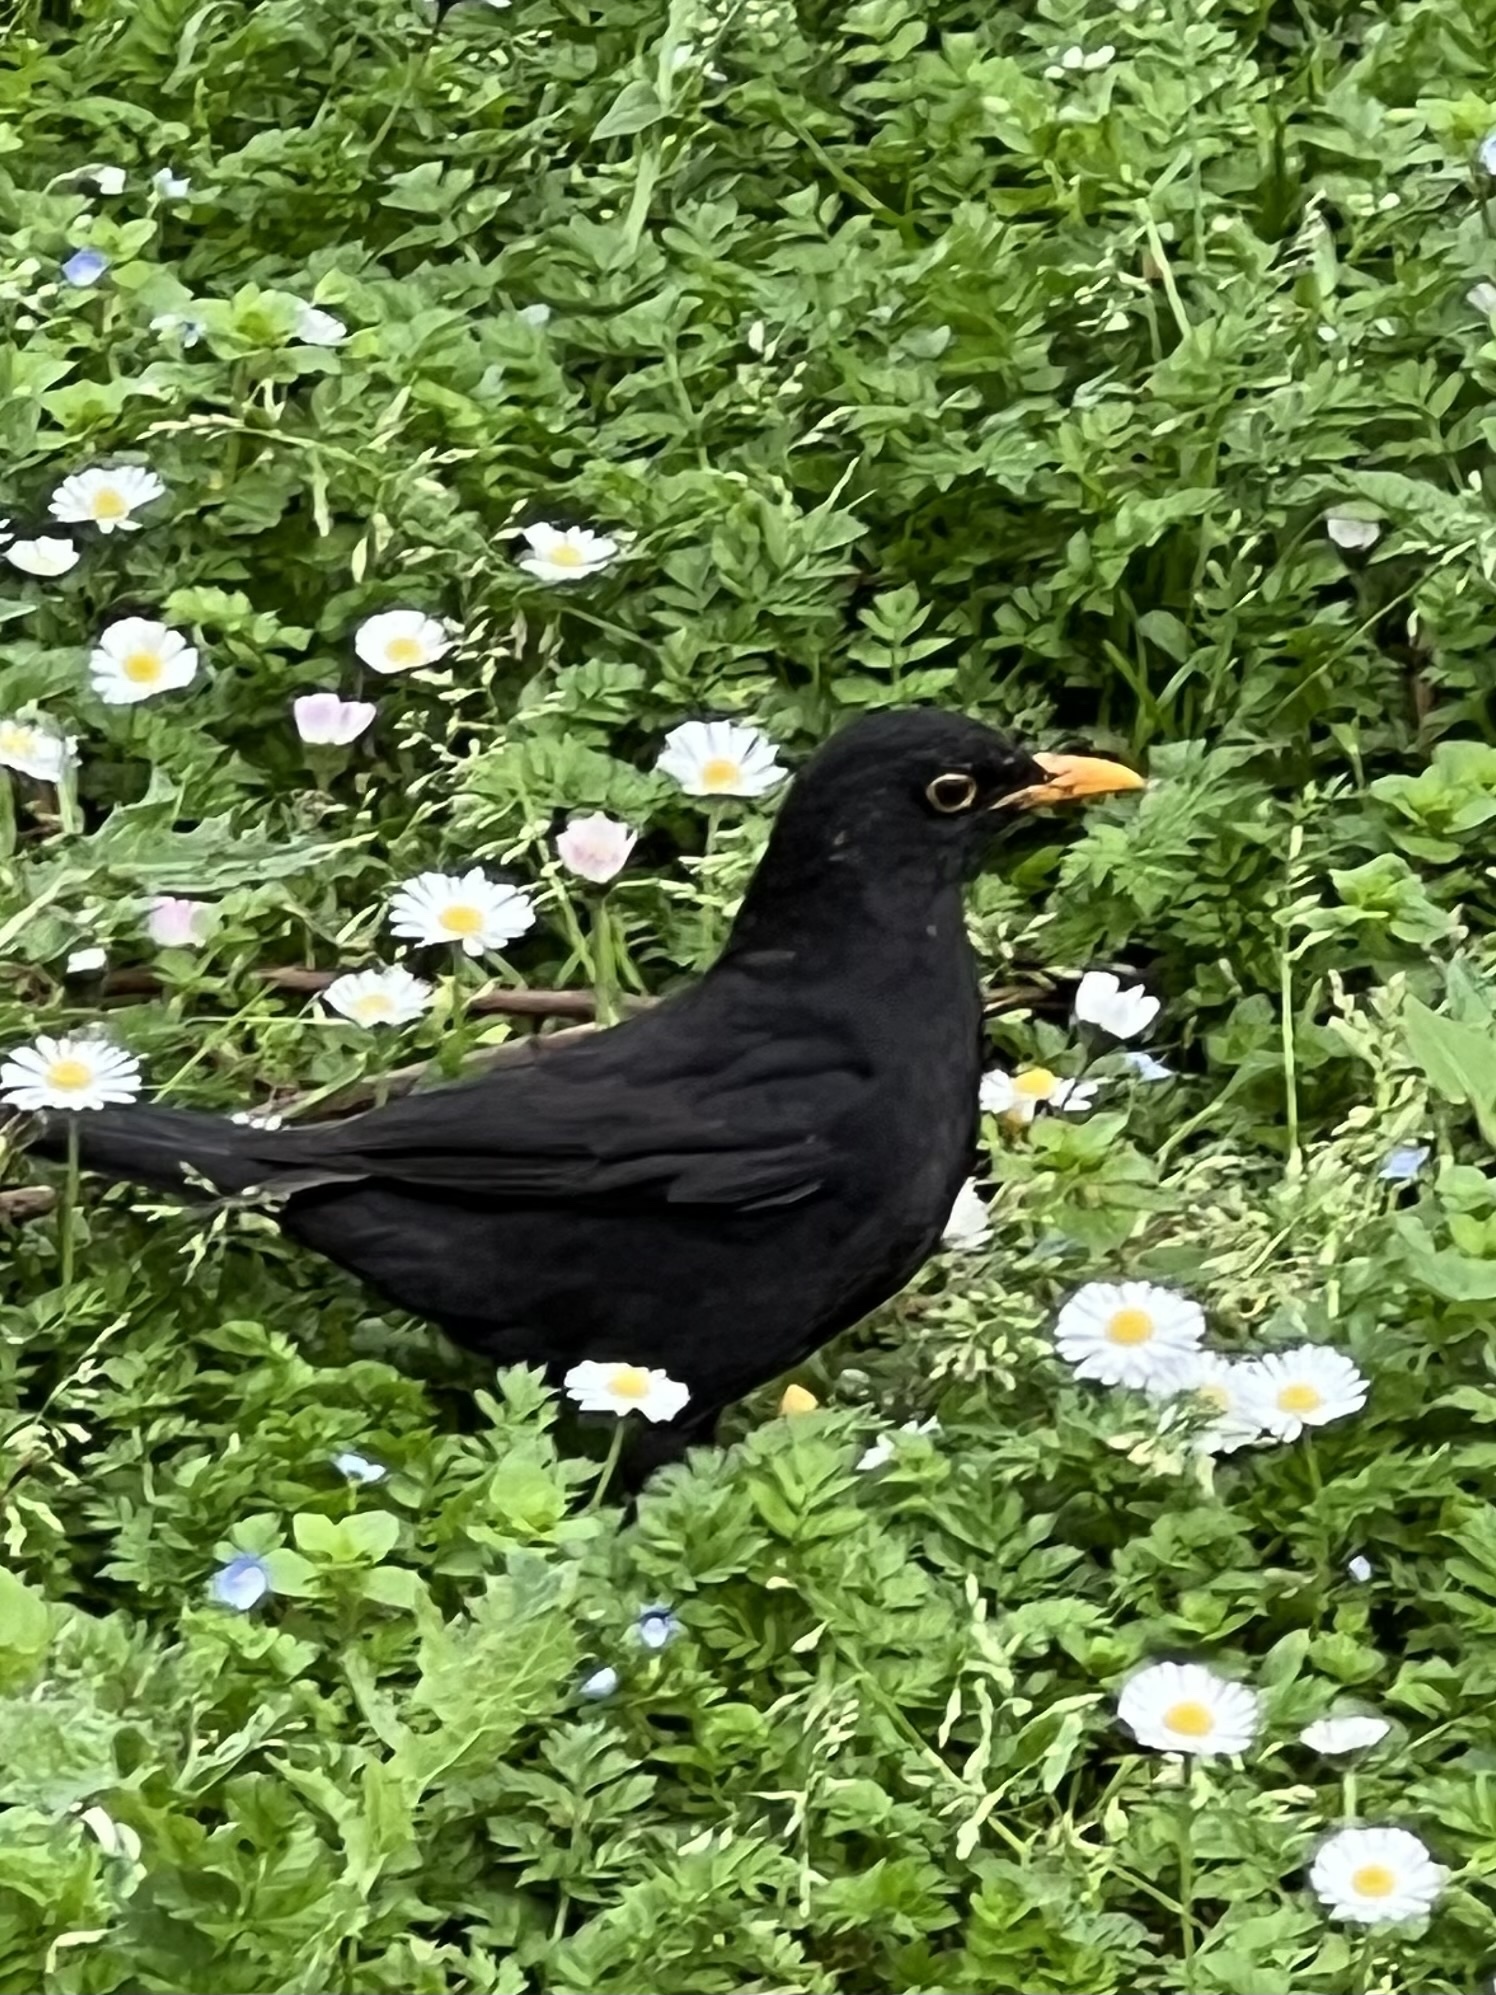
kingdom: Animalia
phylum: Chordata
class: Aves
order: Passeriformes
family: Turdidae
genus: Turdus
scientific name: Turdus merula
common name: Common blackbird
